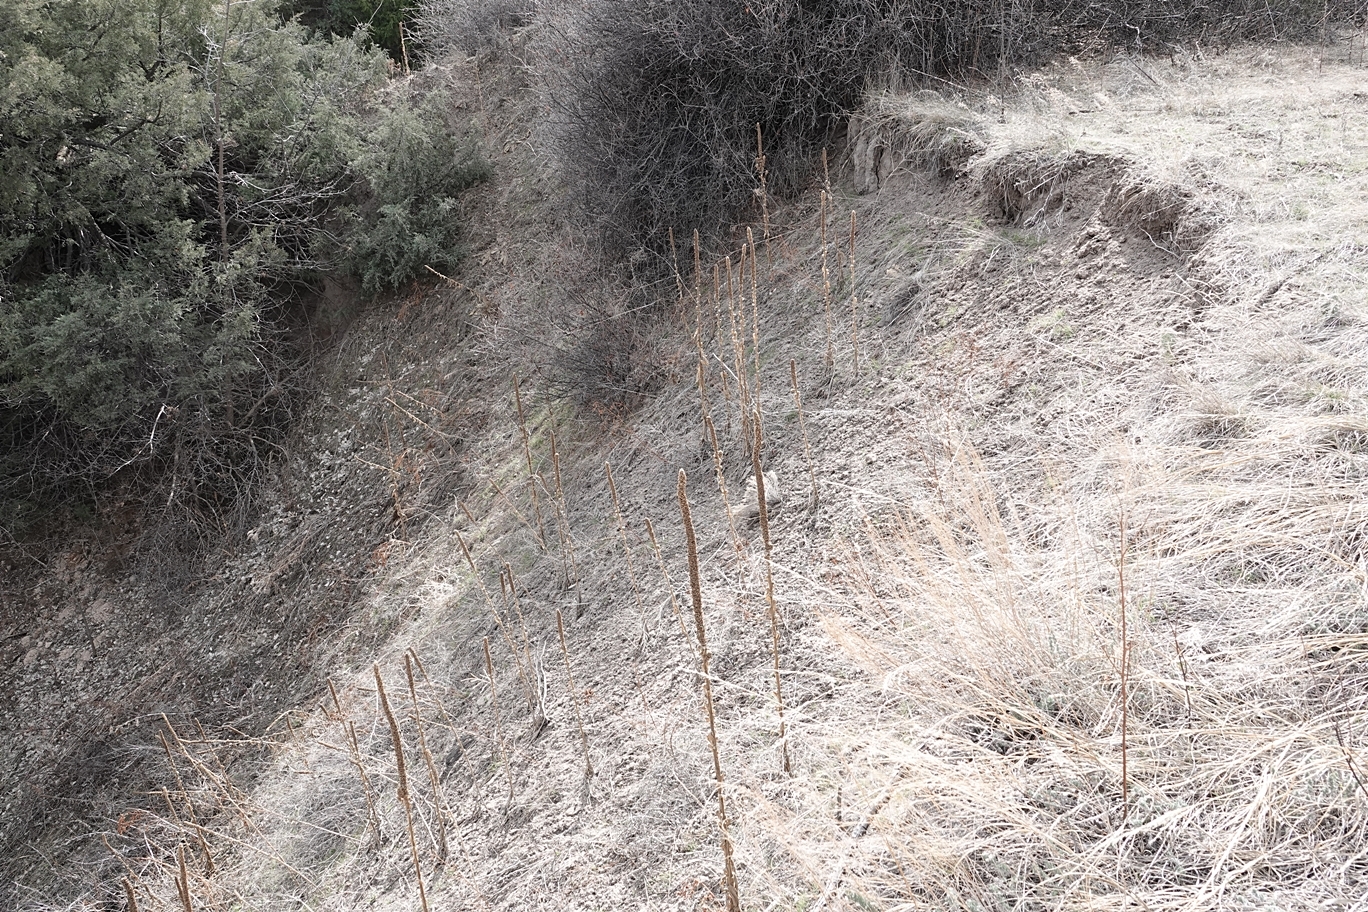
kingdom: Plantae
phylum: Tracheophyta
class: Magnoliopsida
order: Lamiales
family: Scrophulariaceae
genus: Verbascum
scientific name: Verbascum thapsus
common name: Common mullein
